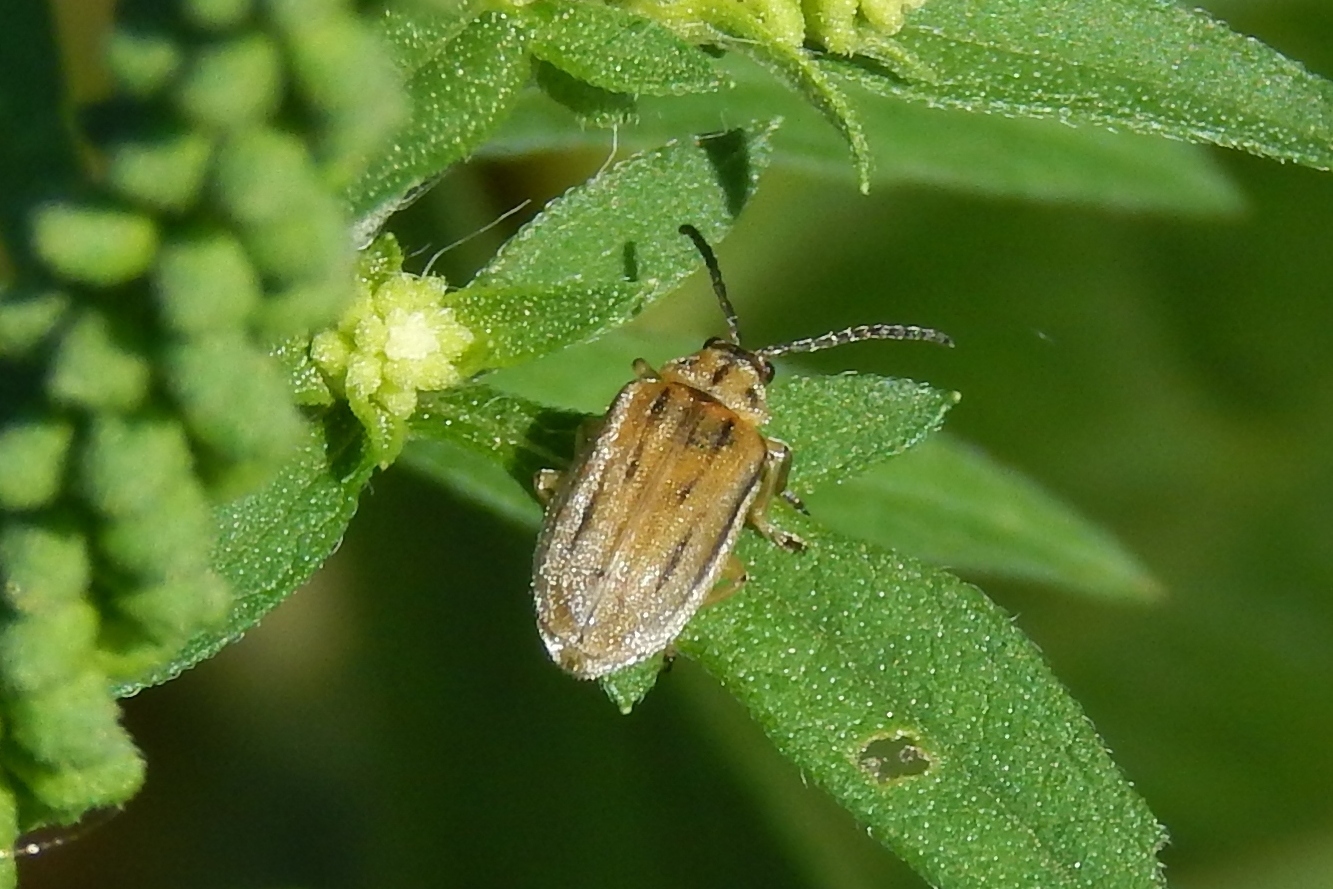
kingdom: Animalia
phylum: Arthropoda
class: Insecta
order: Coleoptera
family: Chrysomelidae
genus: Ophraella
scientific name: Ophraella communa
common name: Ragweed leaf beetle
